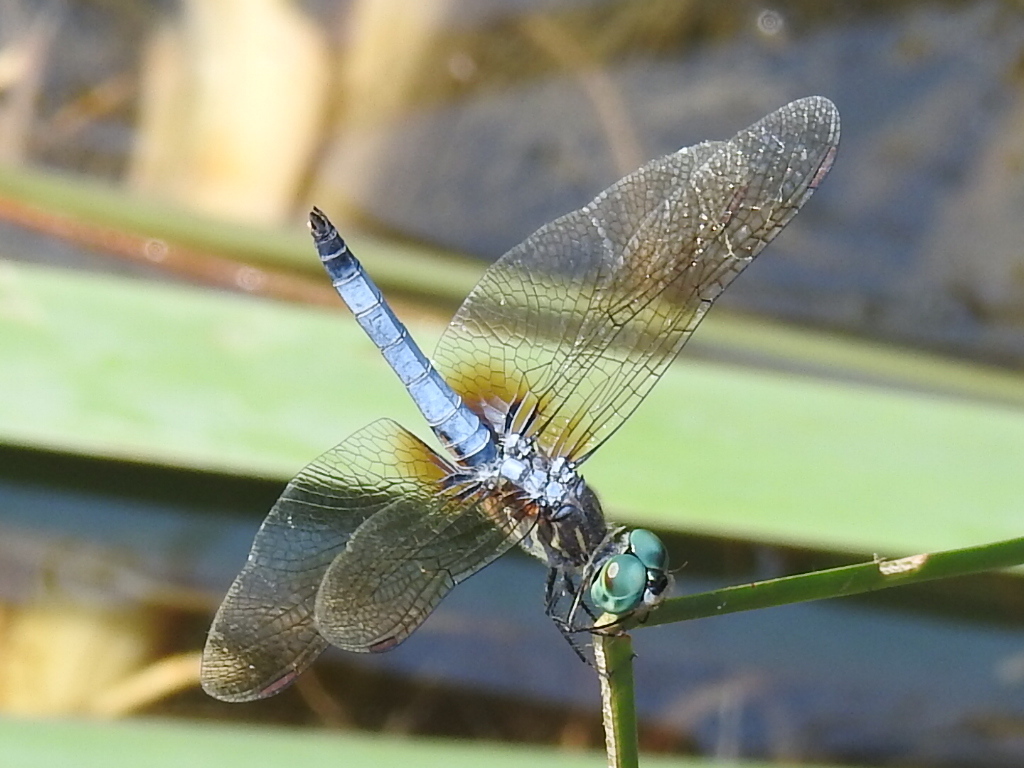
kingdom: Animalia
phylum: Arthropoda
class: Insecta
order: Odonata
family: Libellulidae
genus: Pachydiplax
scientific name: Pachydiplax longipennis
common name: Blue dasher
